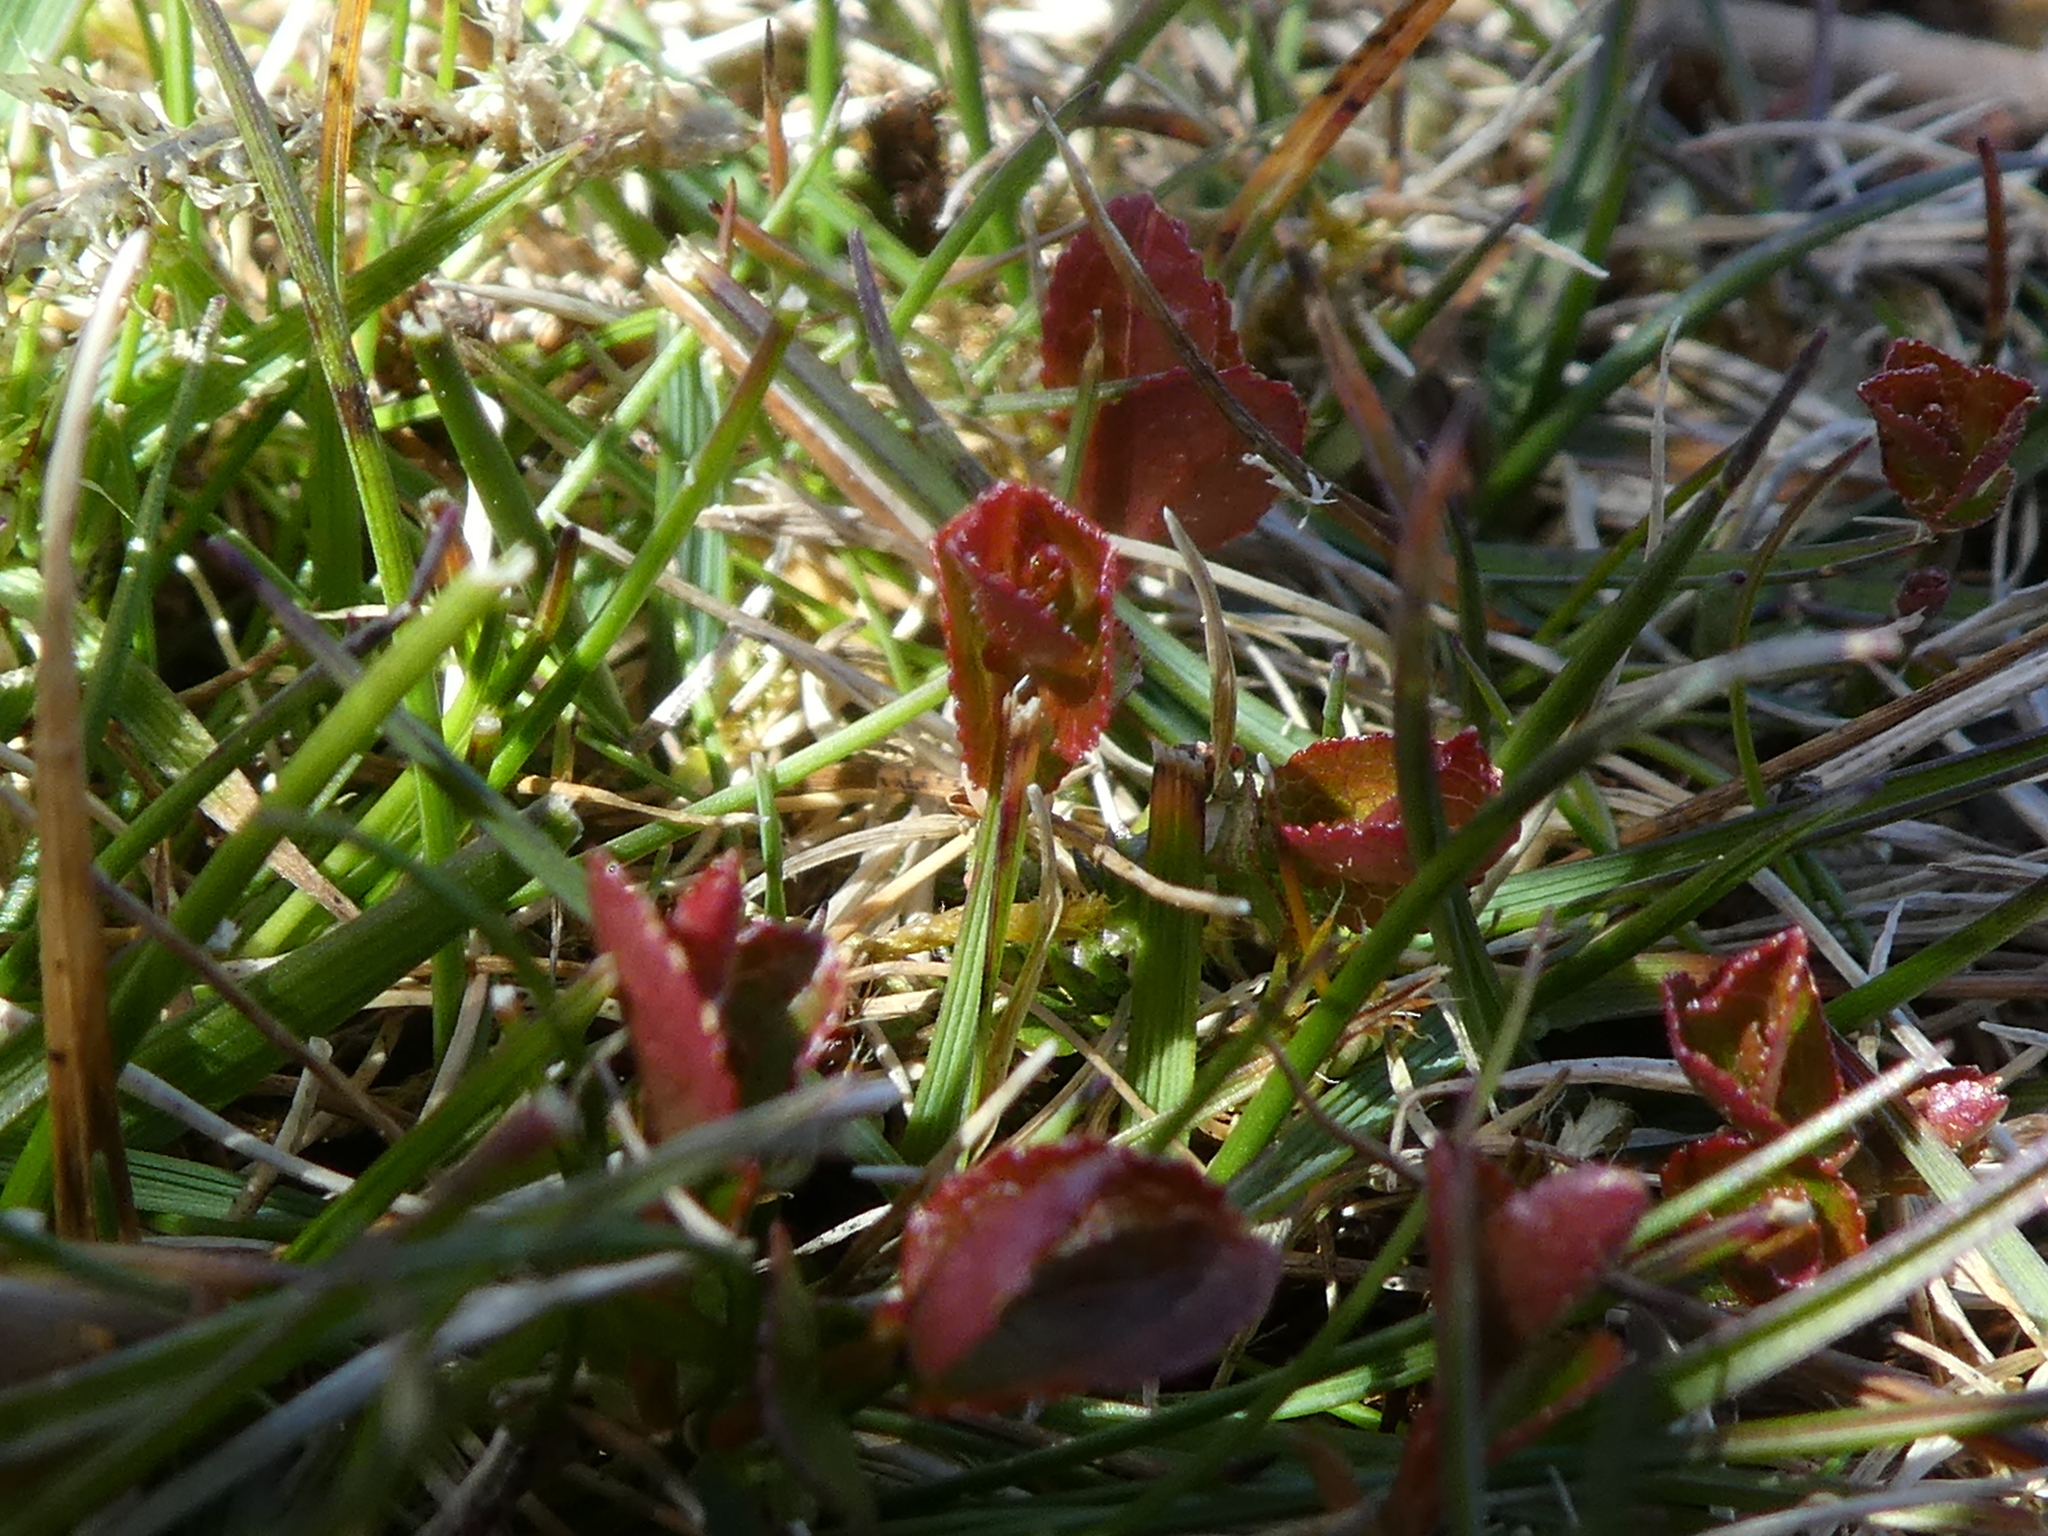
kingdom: Plantae
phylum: Tracheophyta
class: Magnoliopsida
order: Ericales
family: Ericaceae
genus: Vaccinium
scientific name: Vaccinium myrtillus
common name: Bilberry
